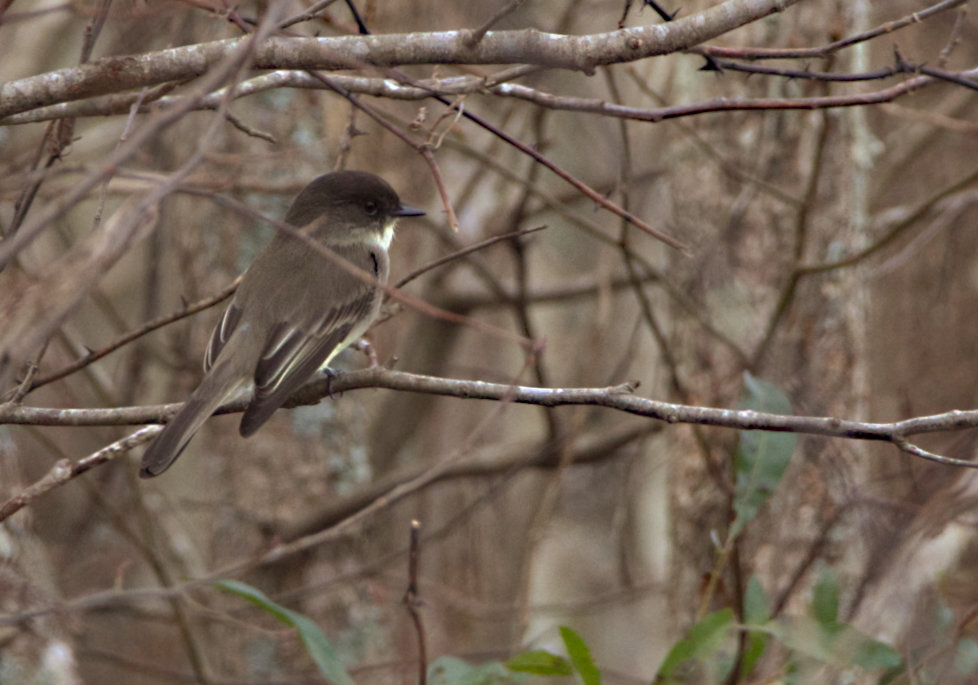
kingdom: Animalia
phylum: Chordata
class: Aves
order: Passeriformes
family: Tyrannidae
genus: Sayornis
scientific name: Sayornis phoebe
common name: Eastern phoebe
